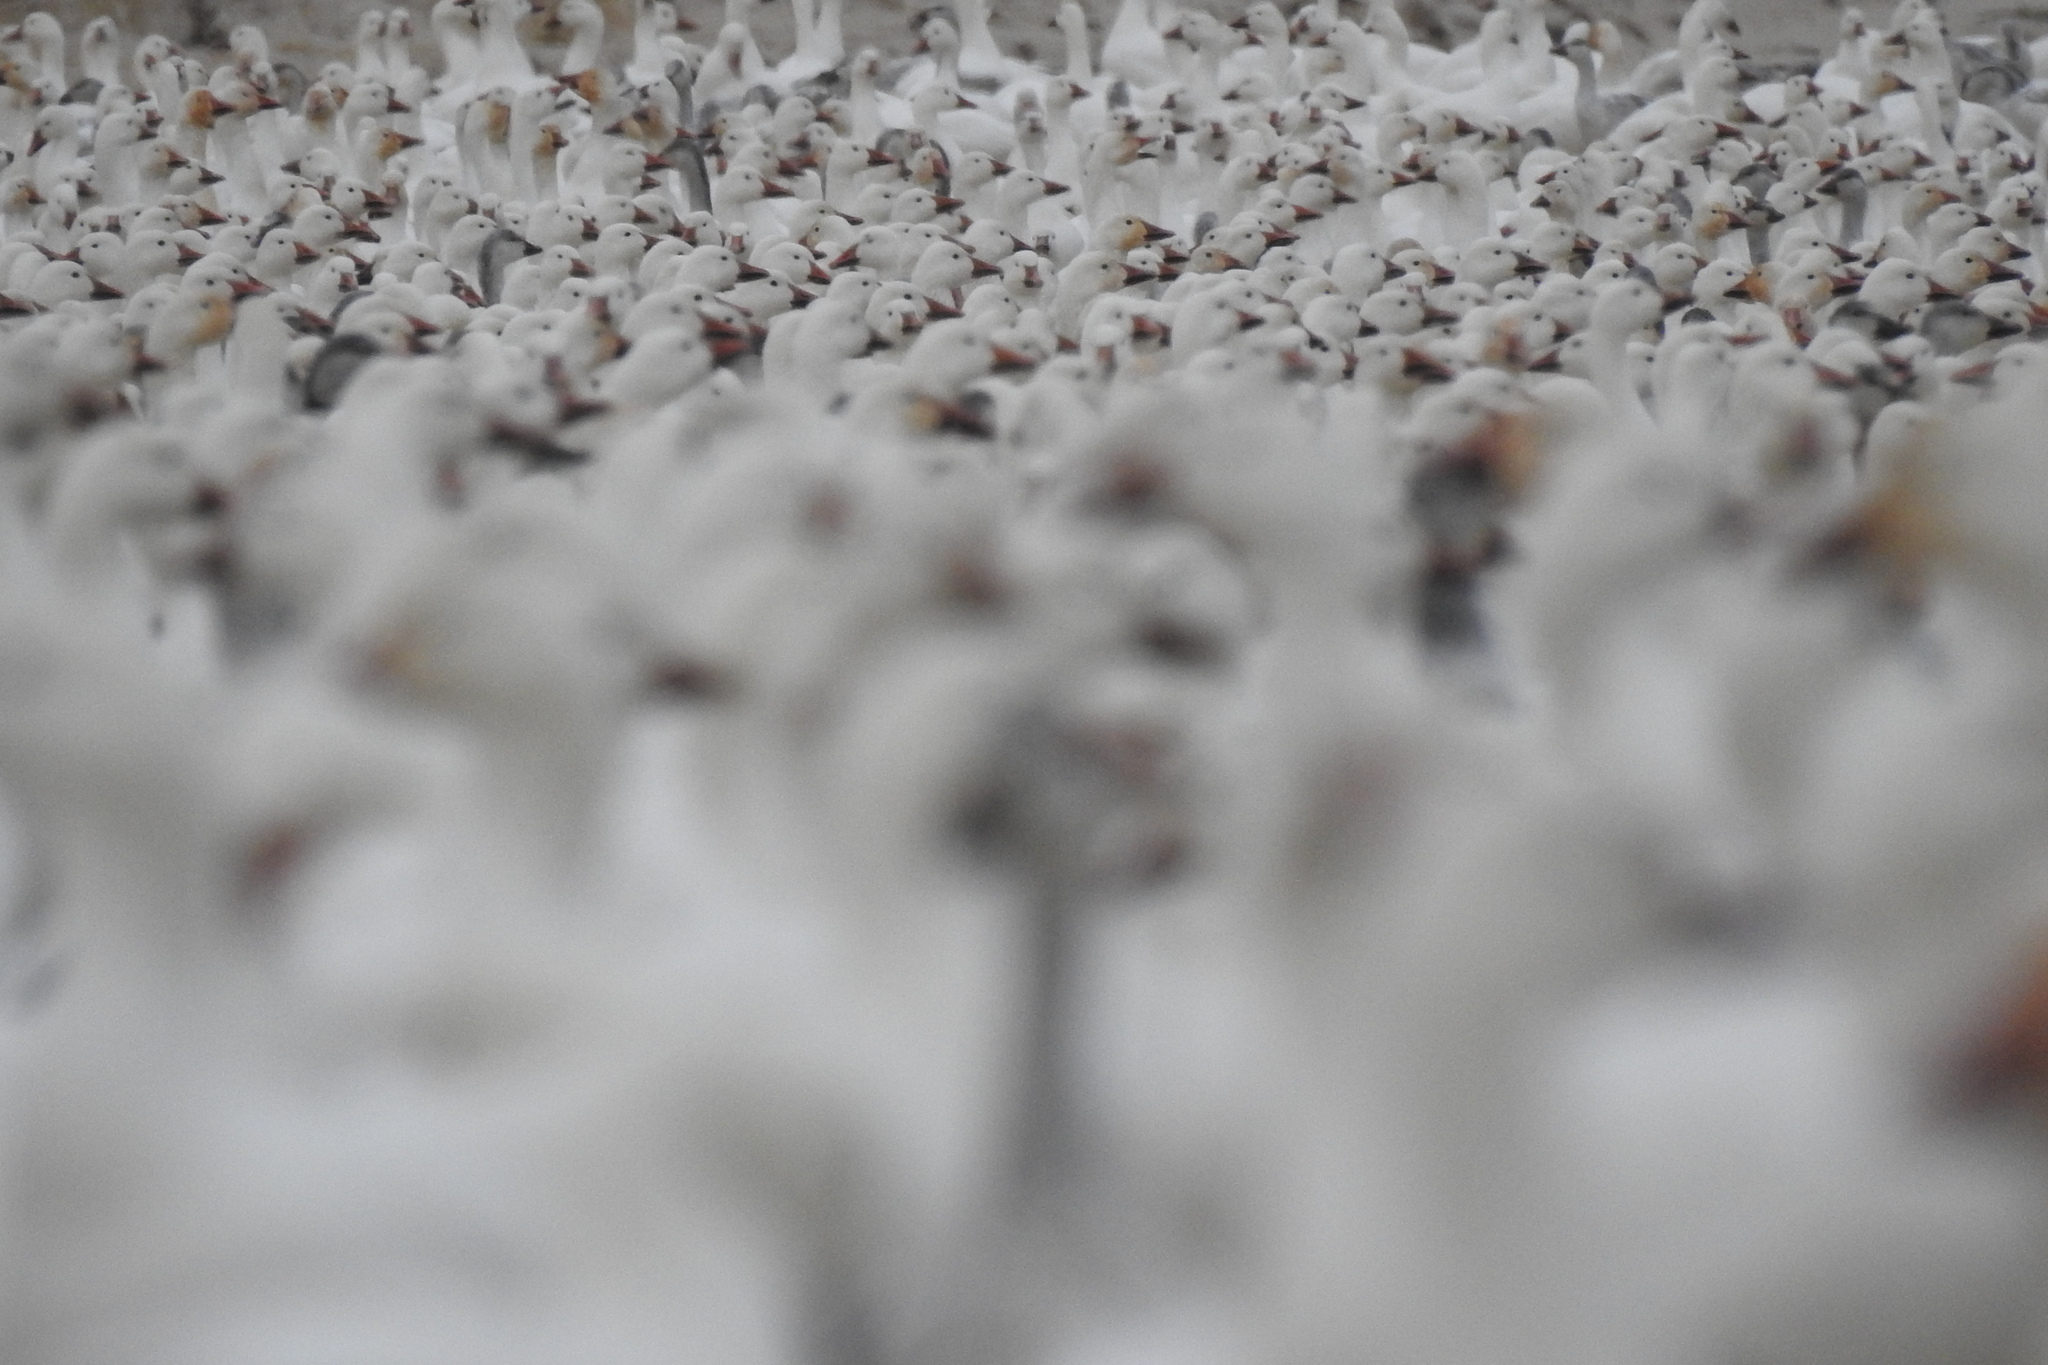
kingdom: Animalia
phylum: Chordata
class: Aves
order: Anseriformes
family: Anatidae
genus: Anser
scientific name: Anser caerulescens
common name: Snow goose
